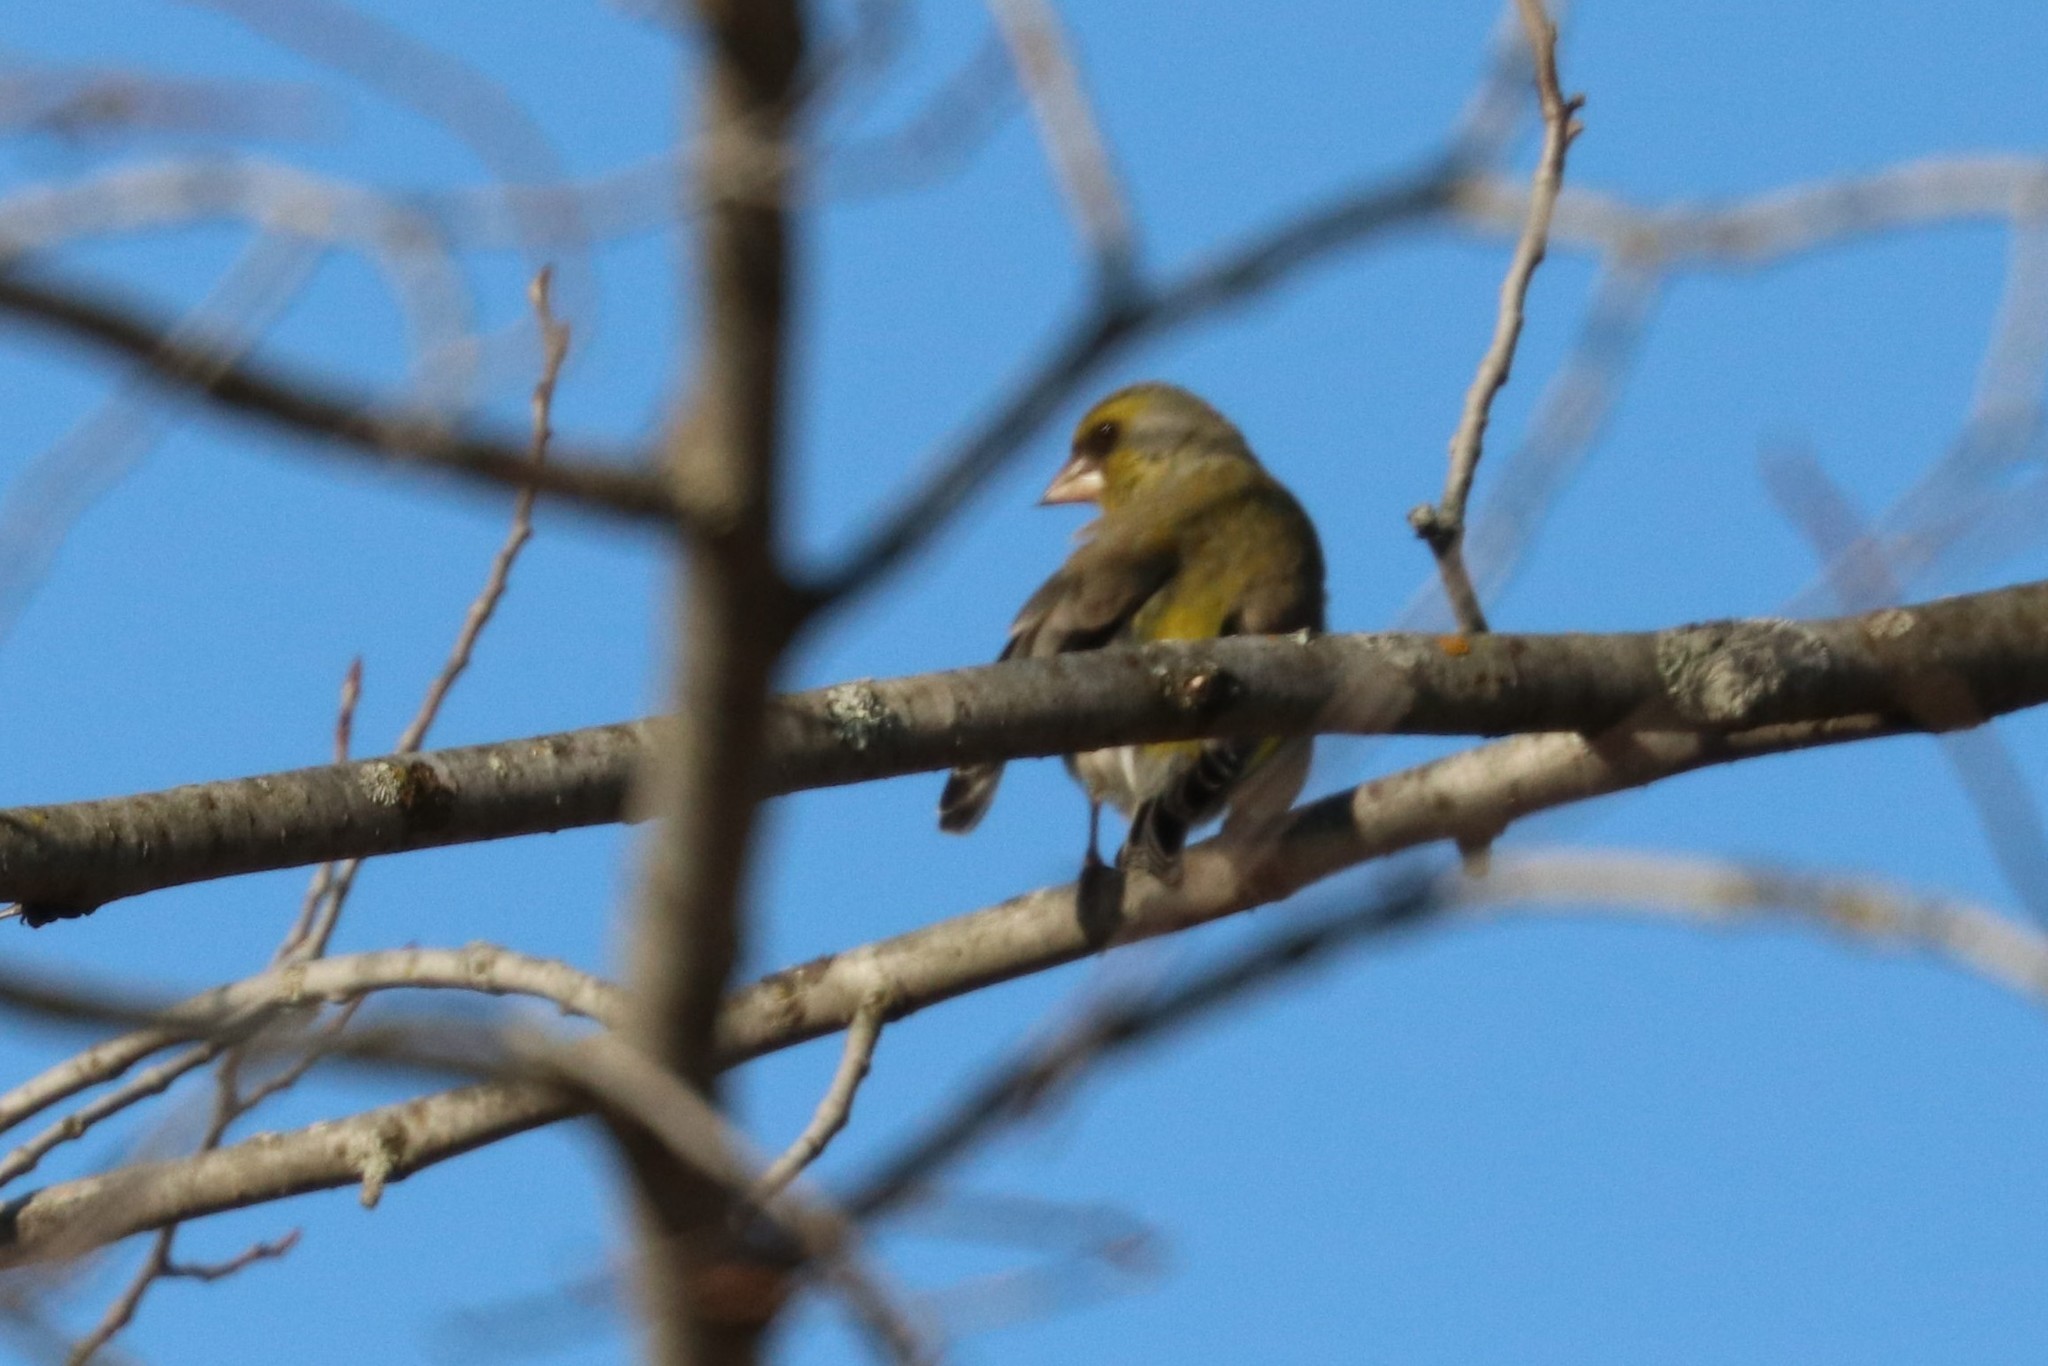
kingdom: Plantae
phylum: Tracheophyta
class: Liliopsida
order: Poales
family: Poaceae
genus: Chloris
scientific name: Chloris chloris
